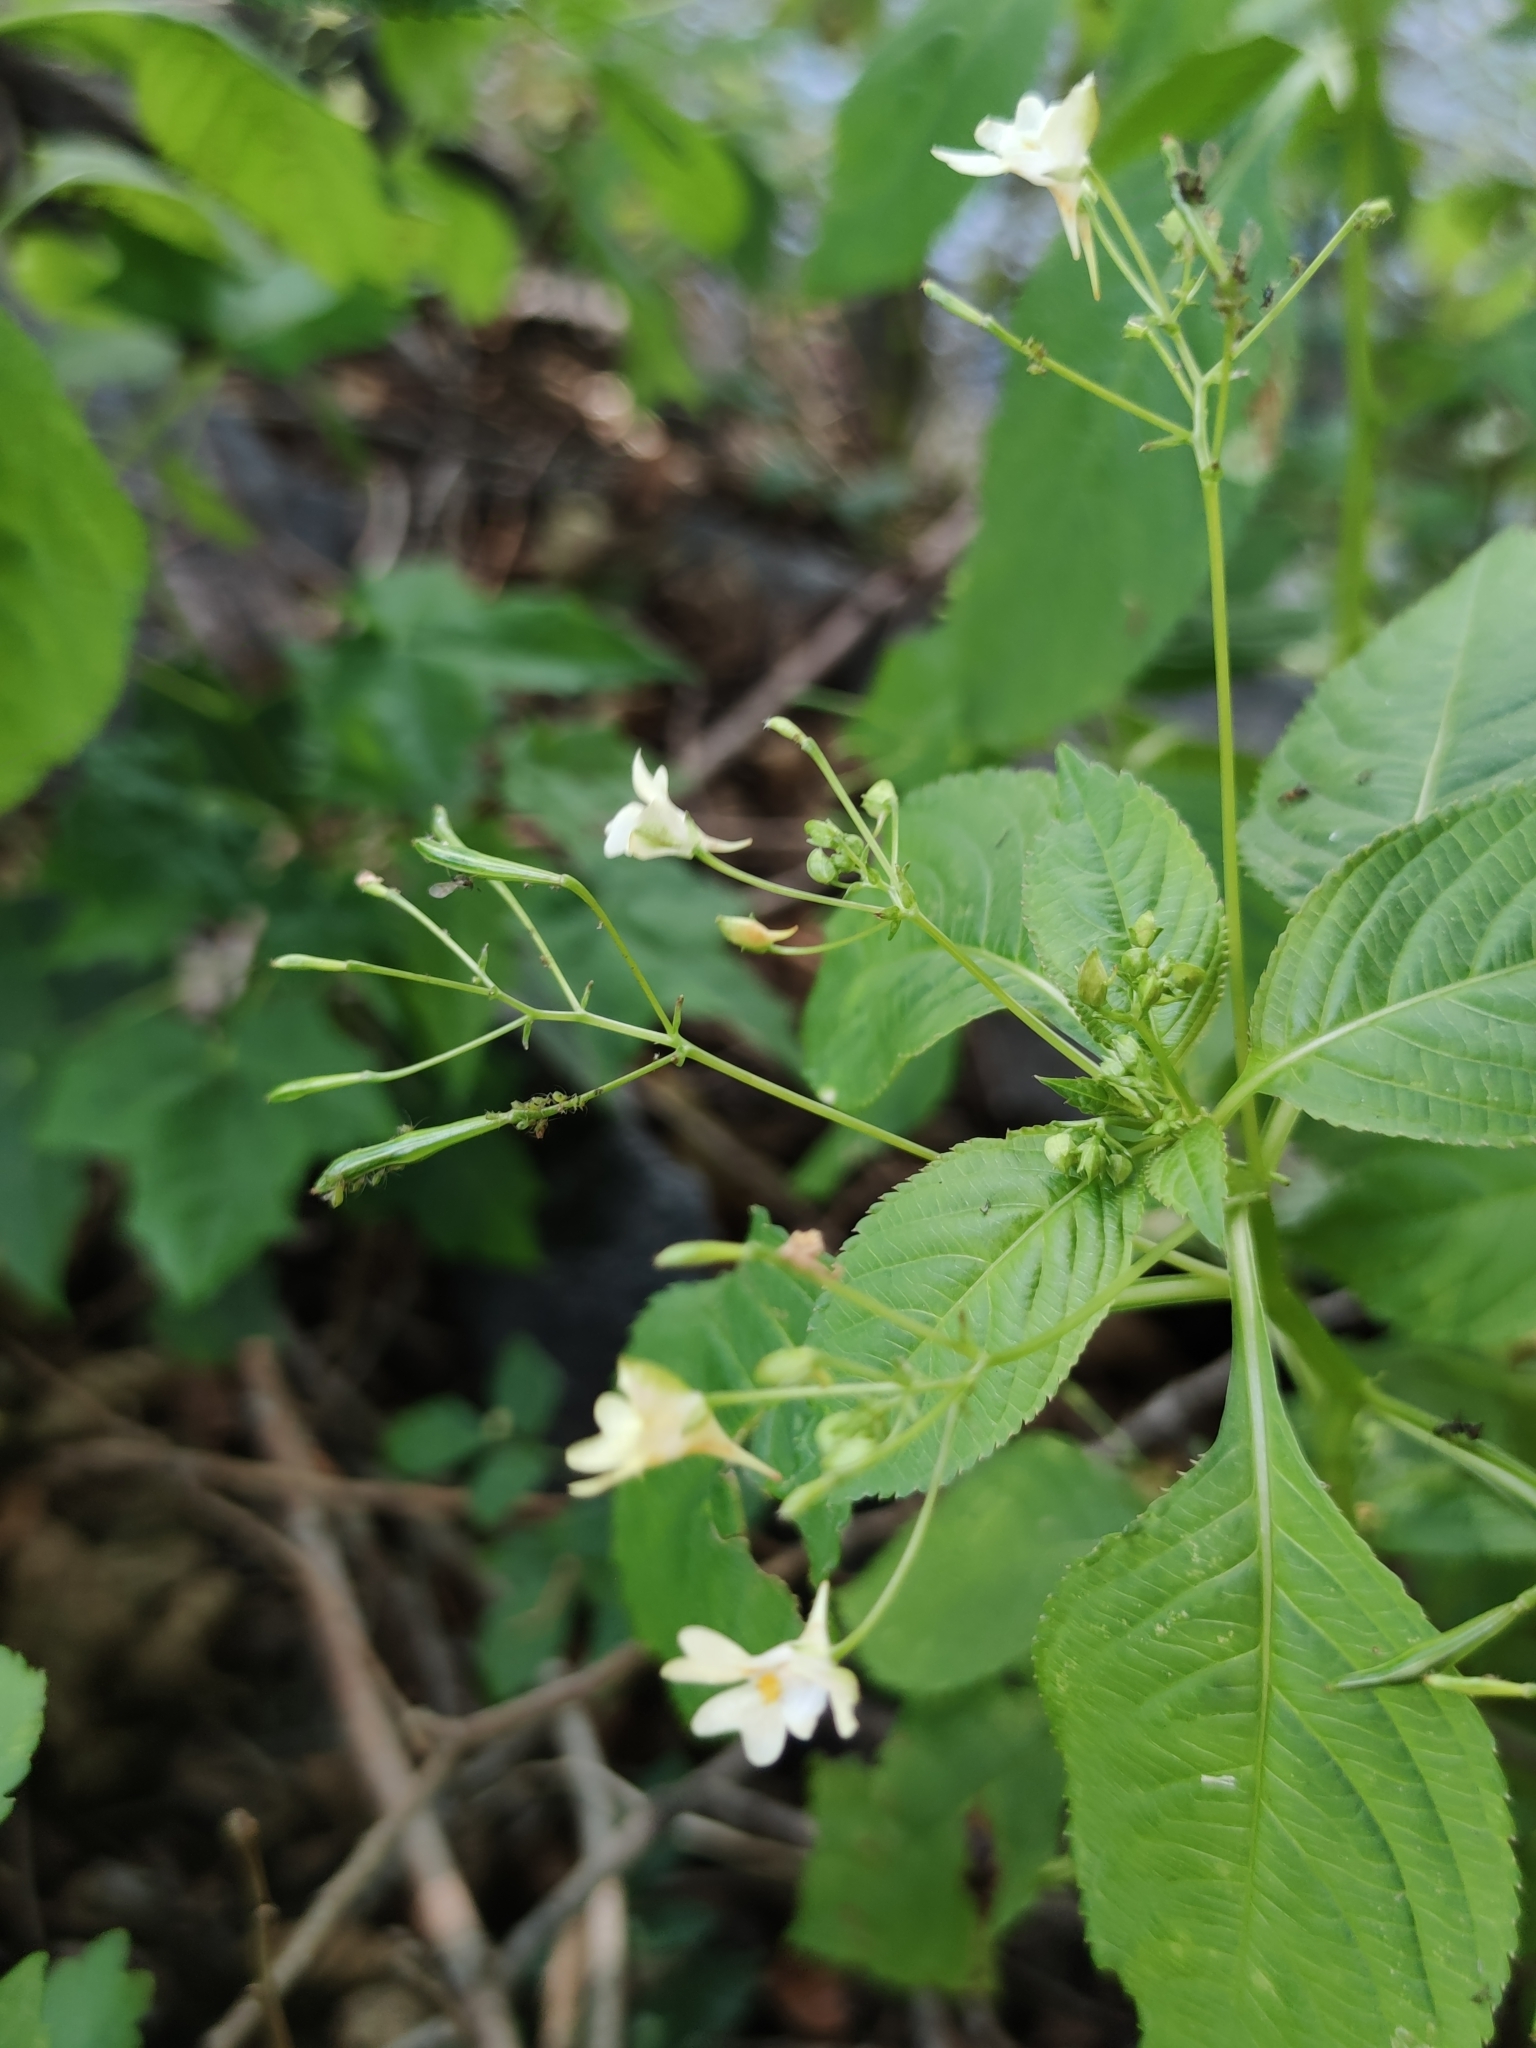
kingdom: Plantae
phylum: Tracheophyta
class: Magnoliopsida
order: Ericales
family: Balsaminaceae
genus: Impatiens
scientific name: Impatiens parviflora
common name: Small balsam
